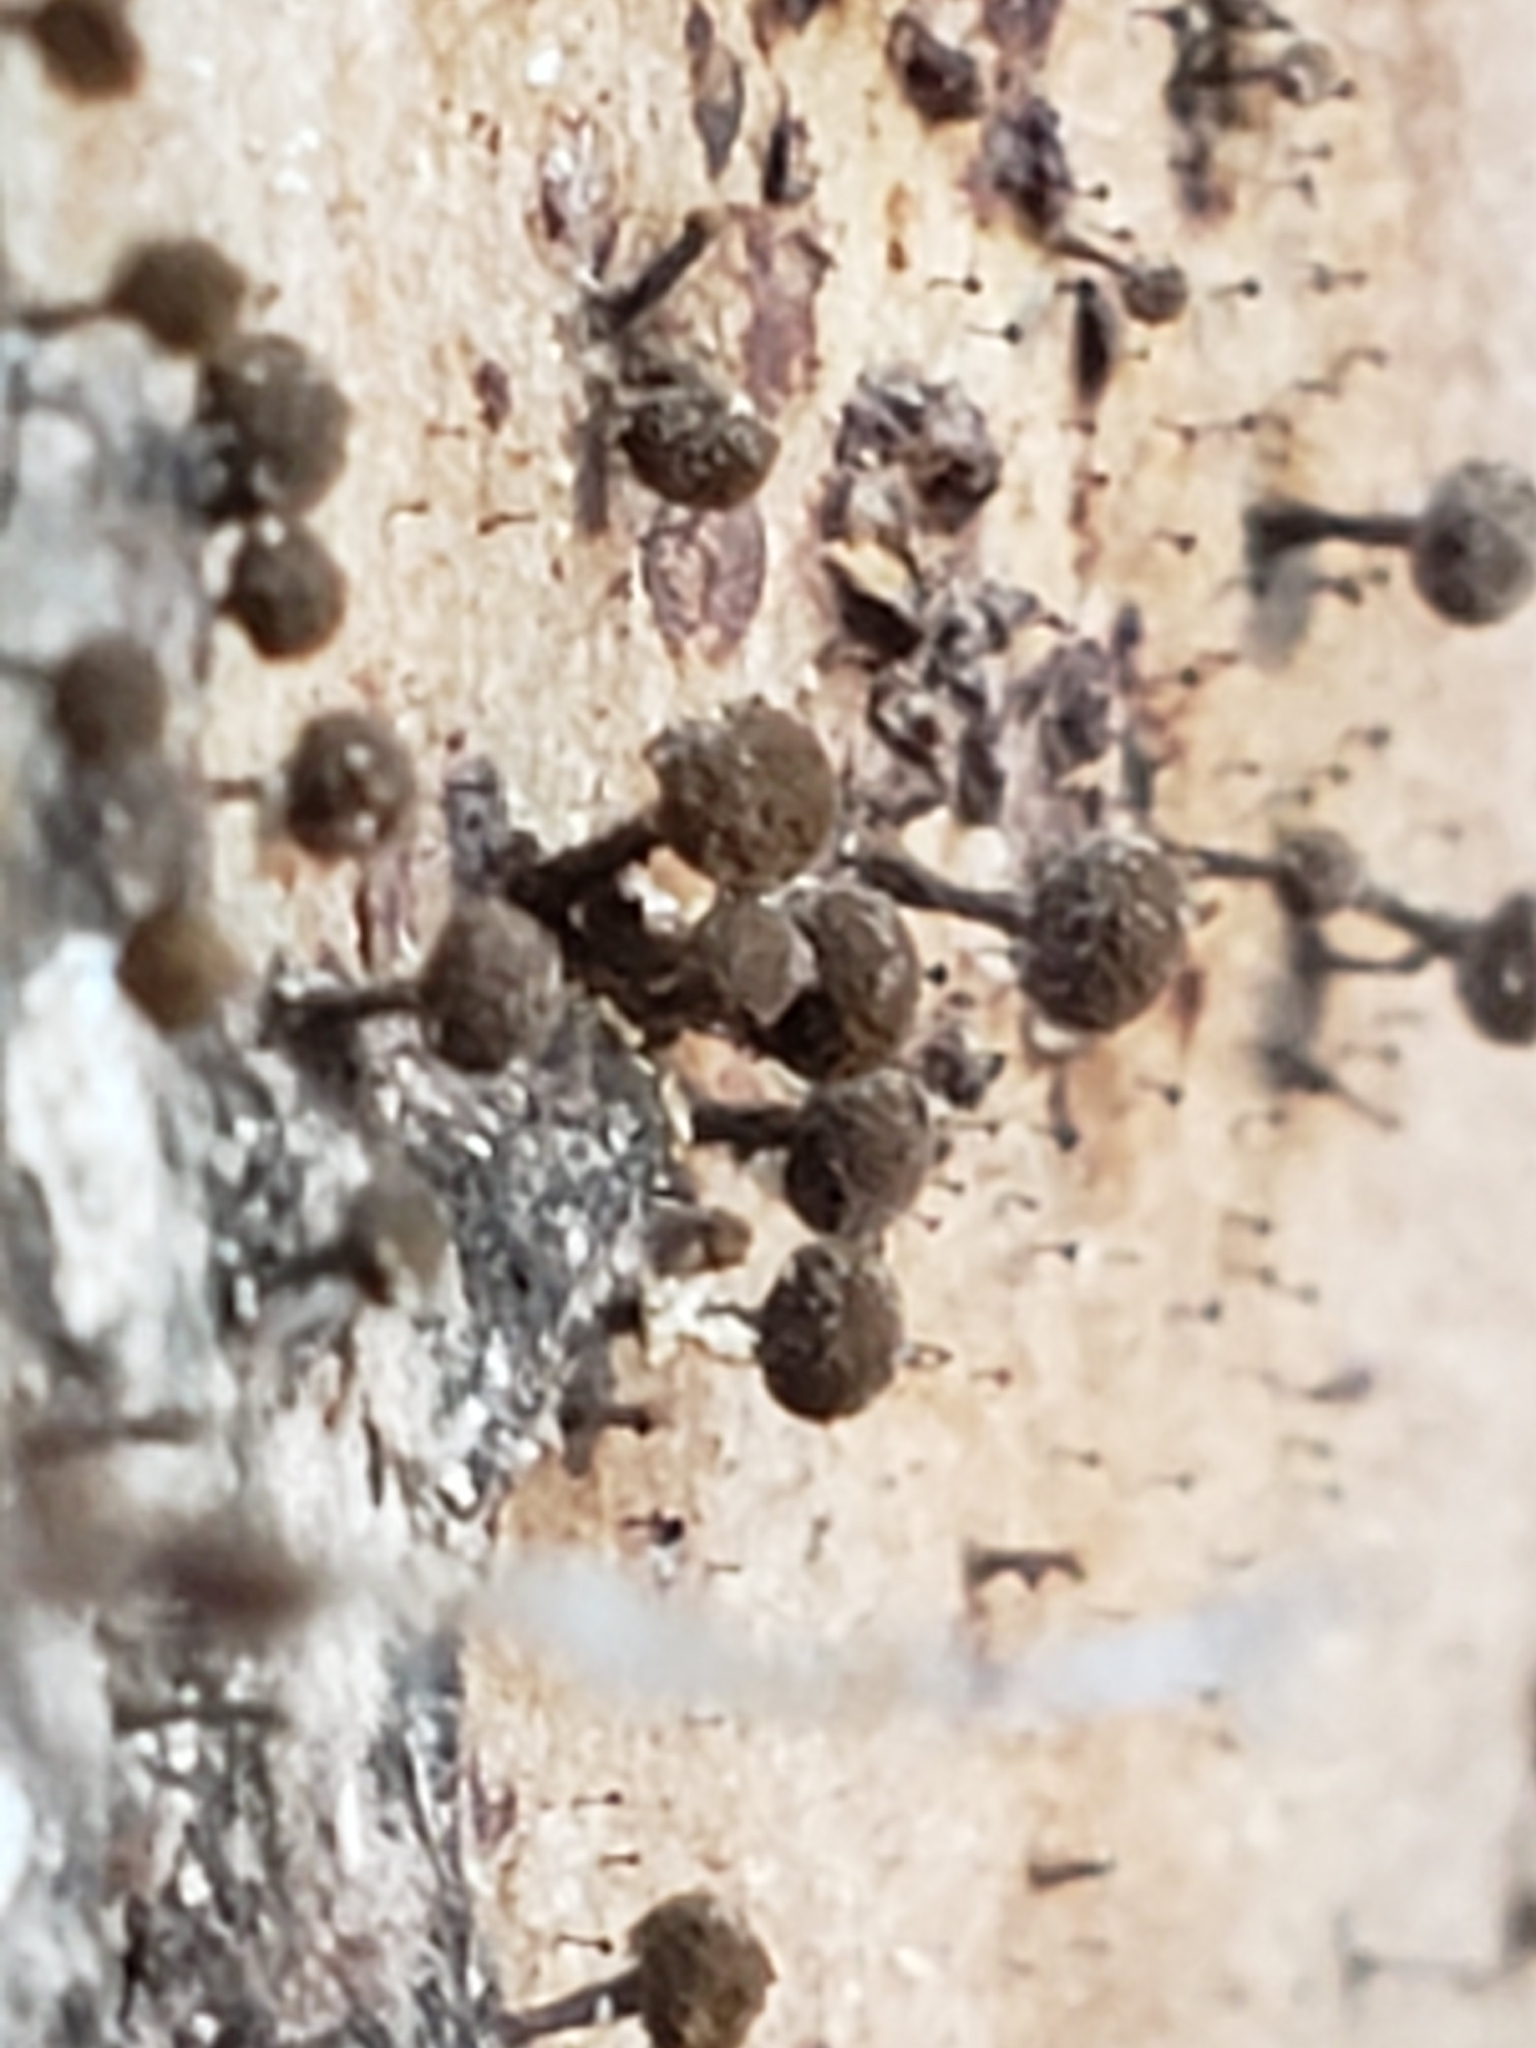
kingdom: Fungi
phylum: Basidiomycota
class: Atractiellomycetes
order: Atractiellales
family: Phleogenaceae
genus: Phleogena
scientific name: Phleogena faginea
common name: Fenugreek stalkball
